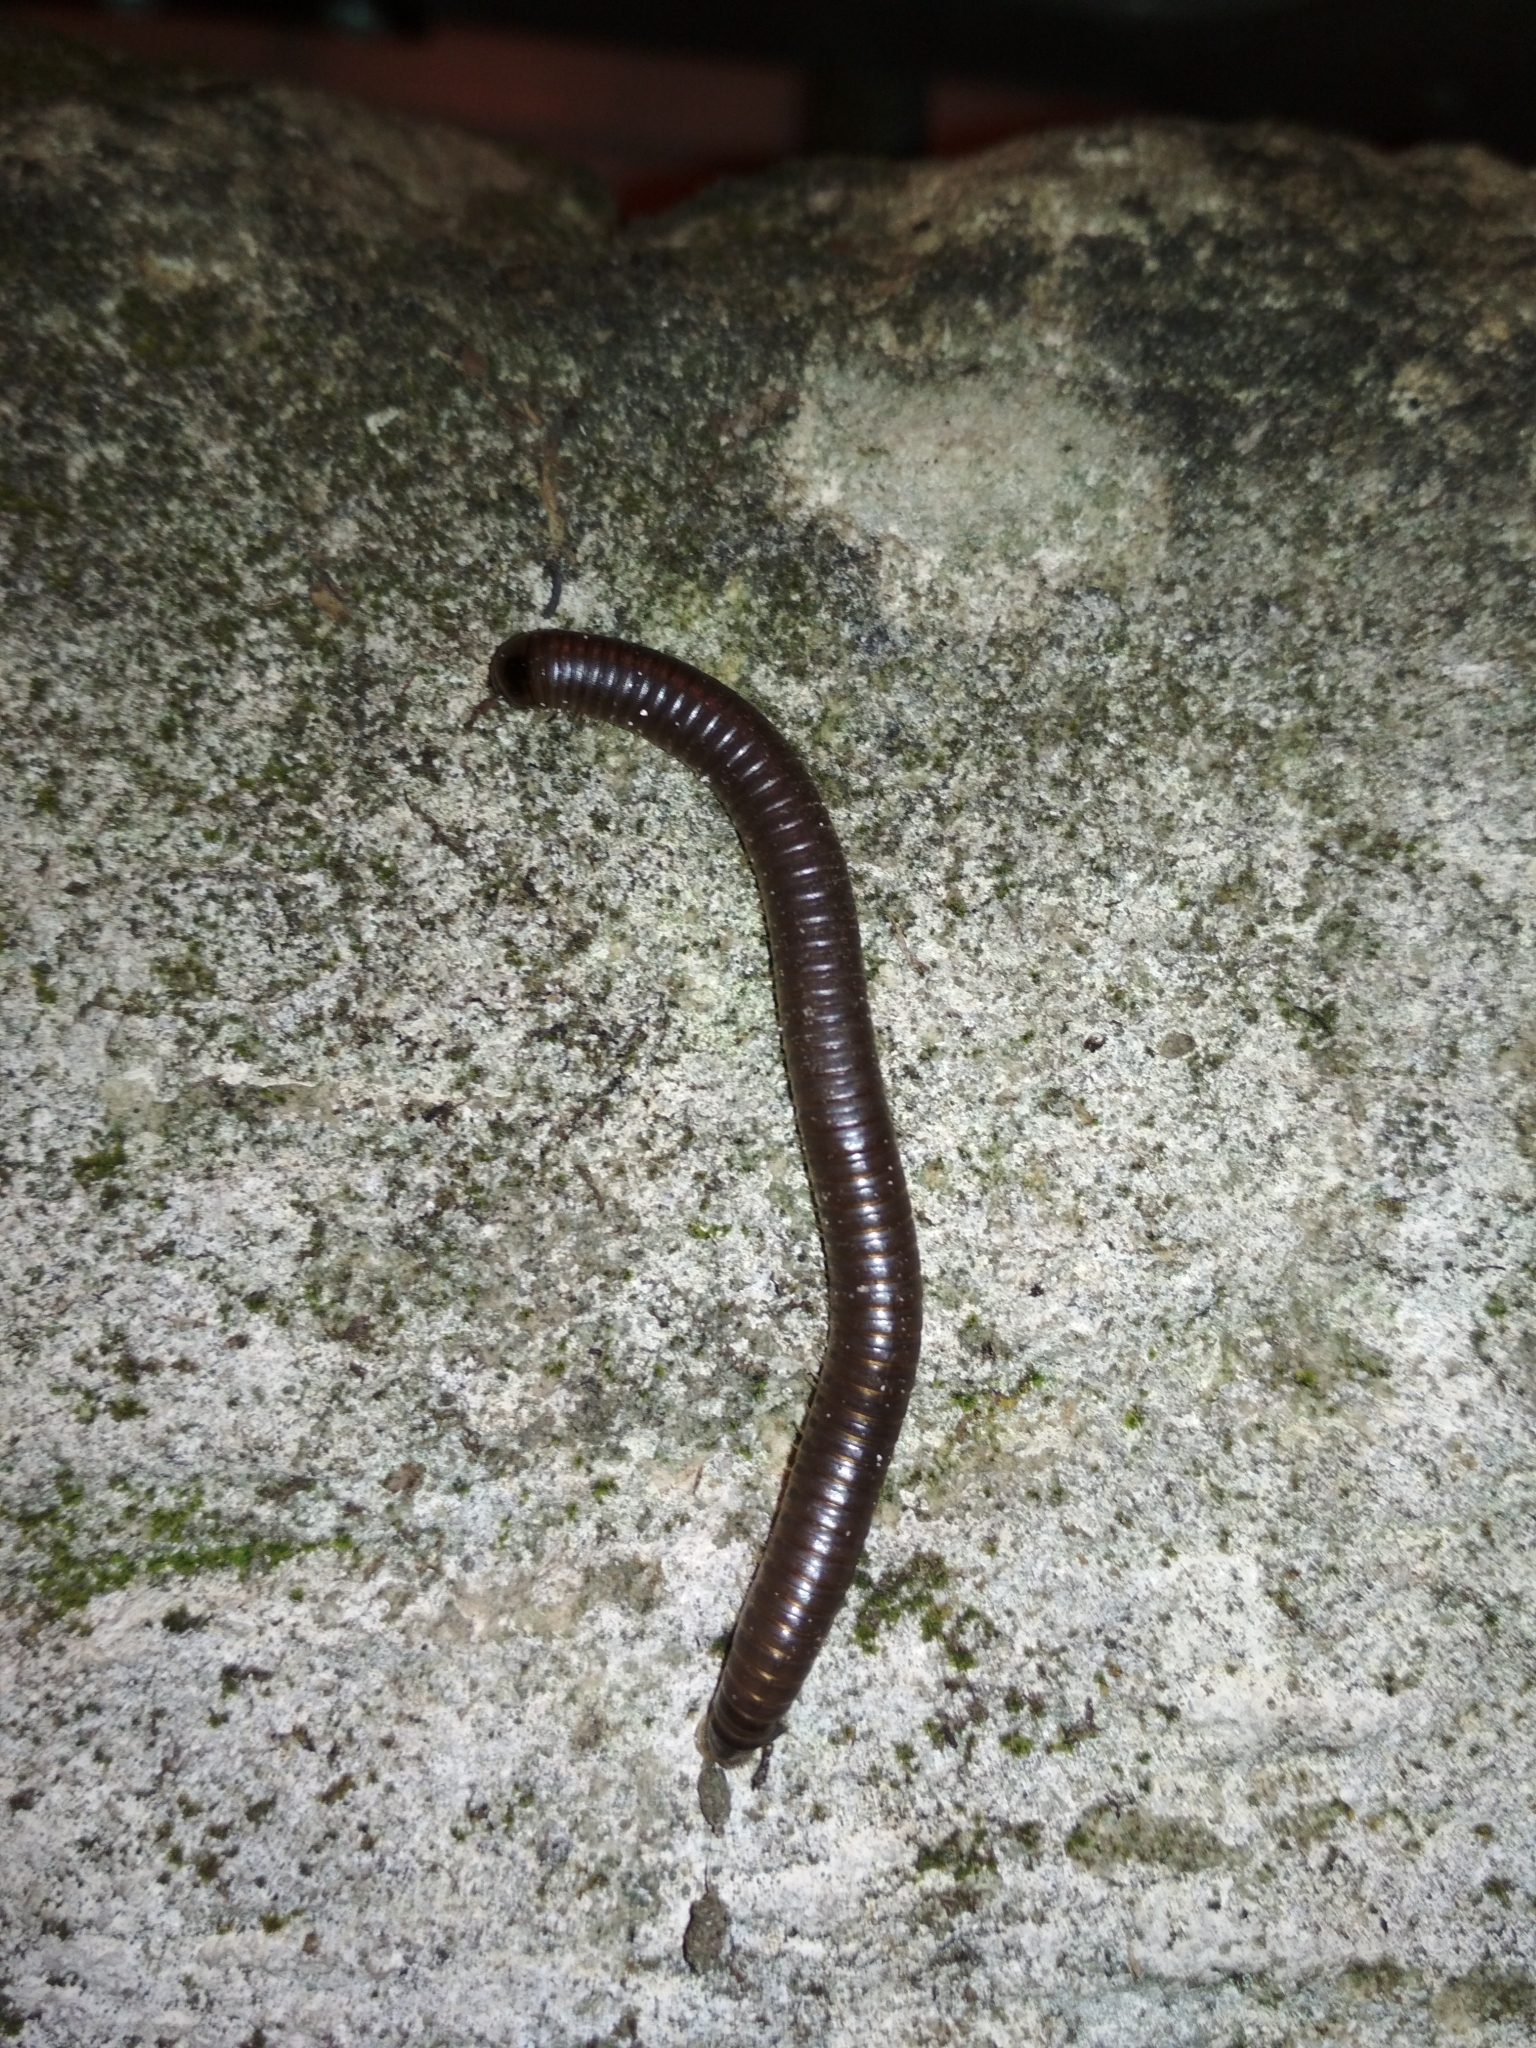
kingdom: Animalia
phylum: Arthropoda
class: Diplopoda
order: Julida
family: Julidae
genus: Pachyiulus
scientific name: Pachyiulus flavipes
